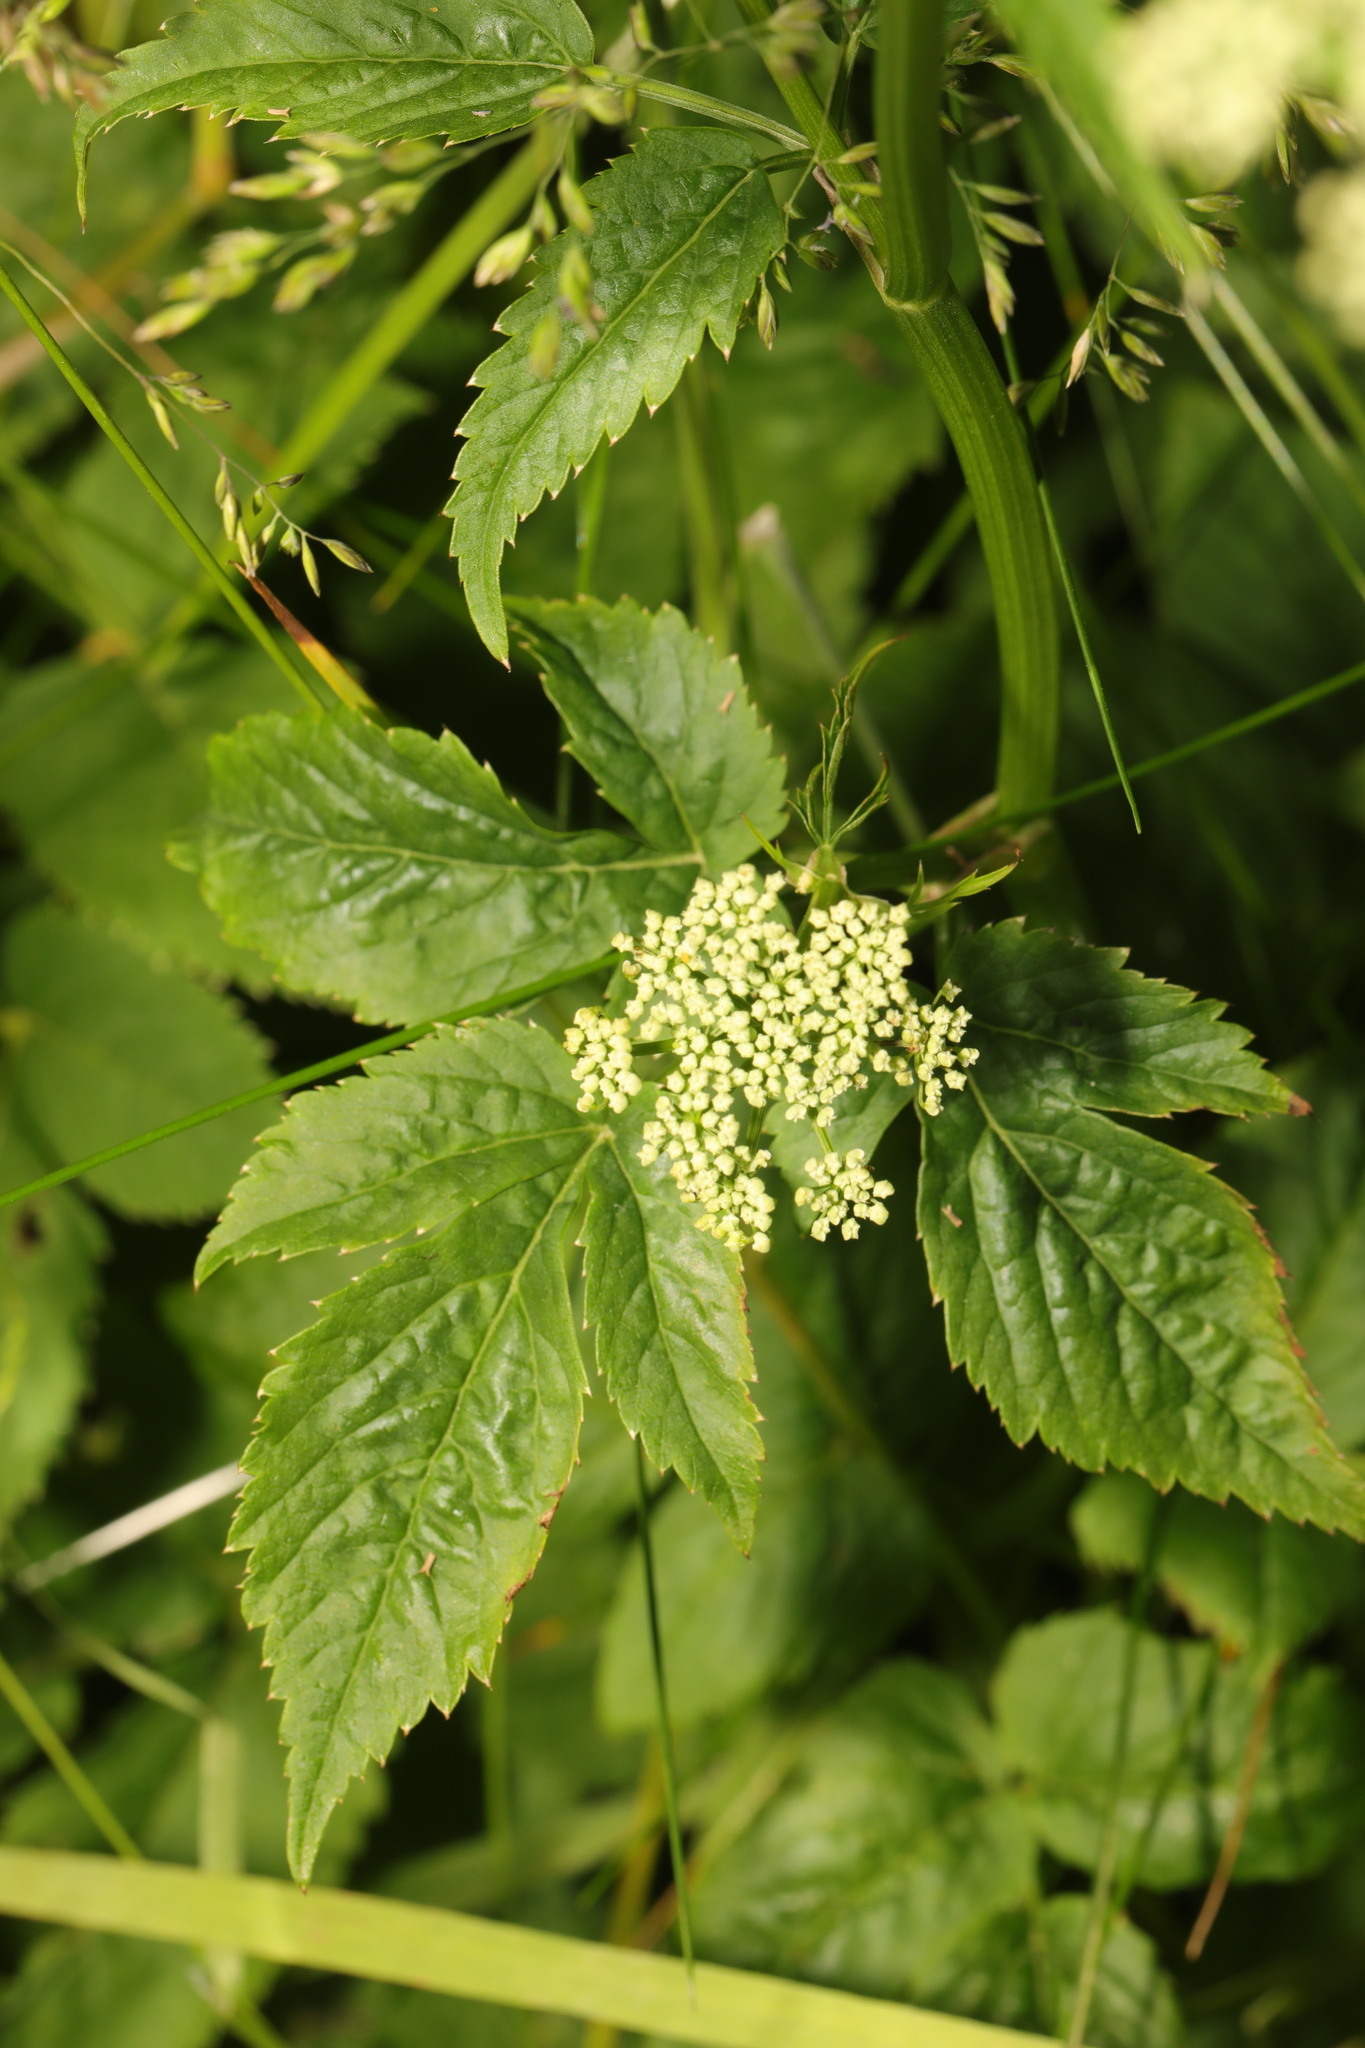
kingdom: Plantae
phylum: Tracheophyta
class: Magnoliopsida
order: Apiales
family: Apiaceae
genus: Aegopodium
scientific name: Aegopodium podagraria
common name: Ground-elder
